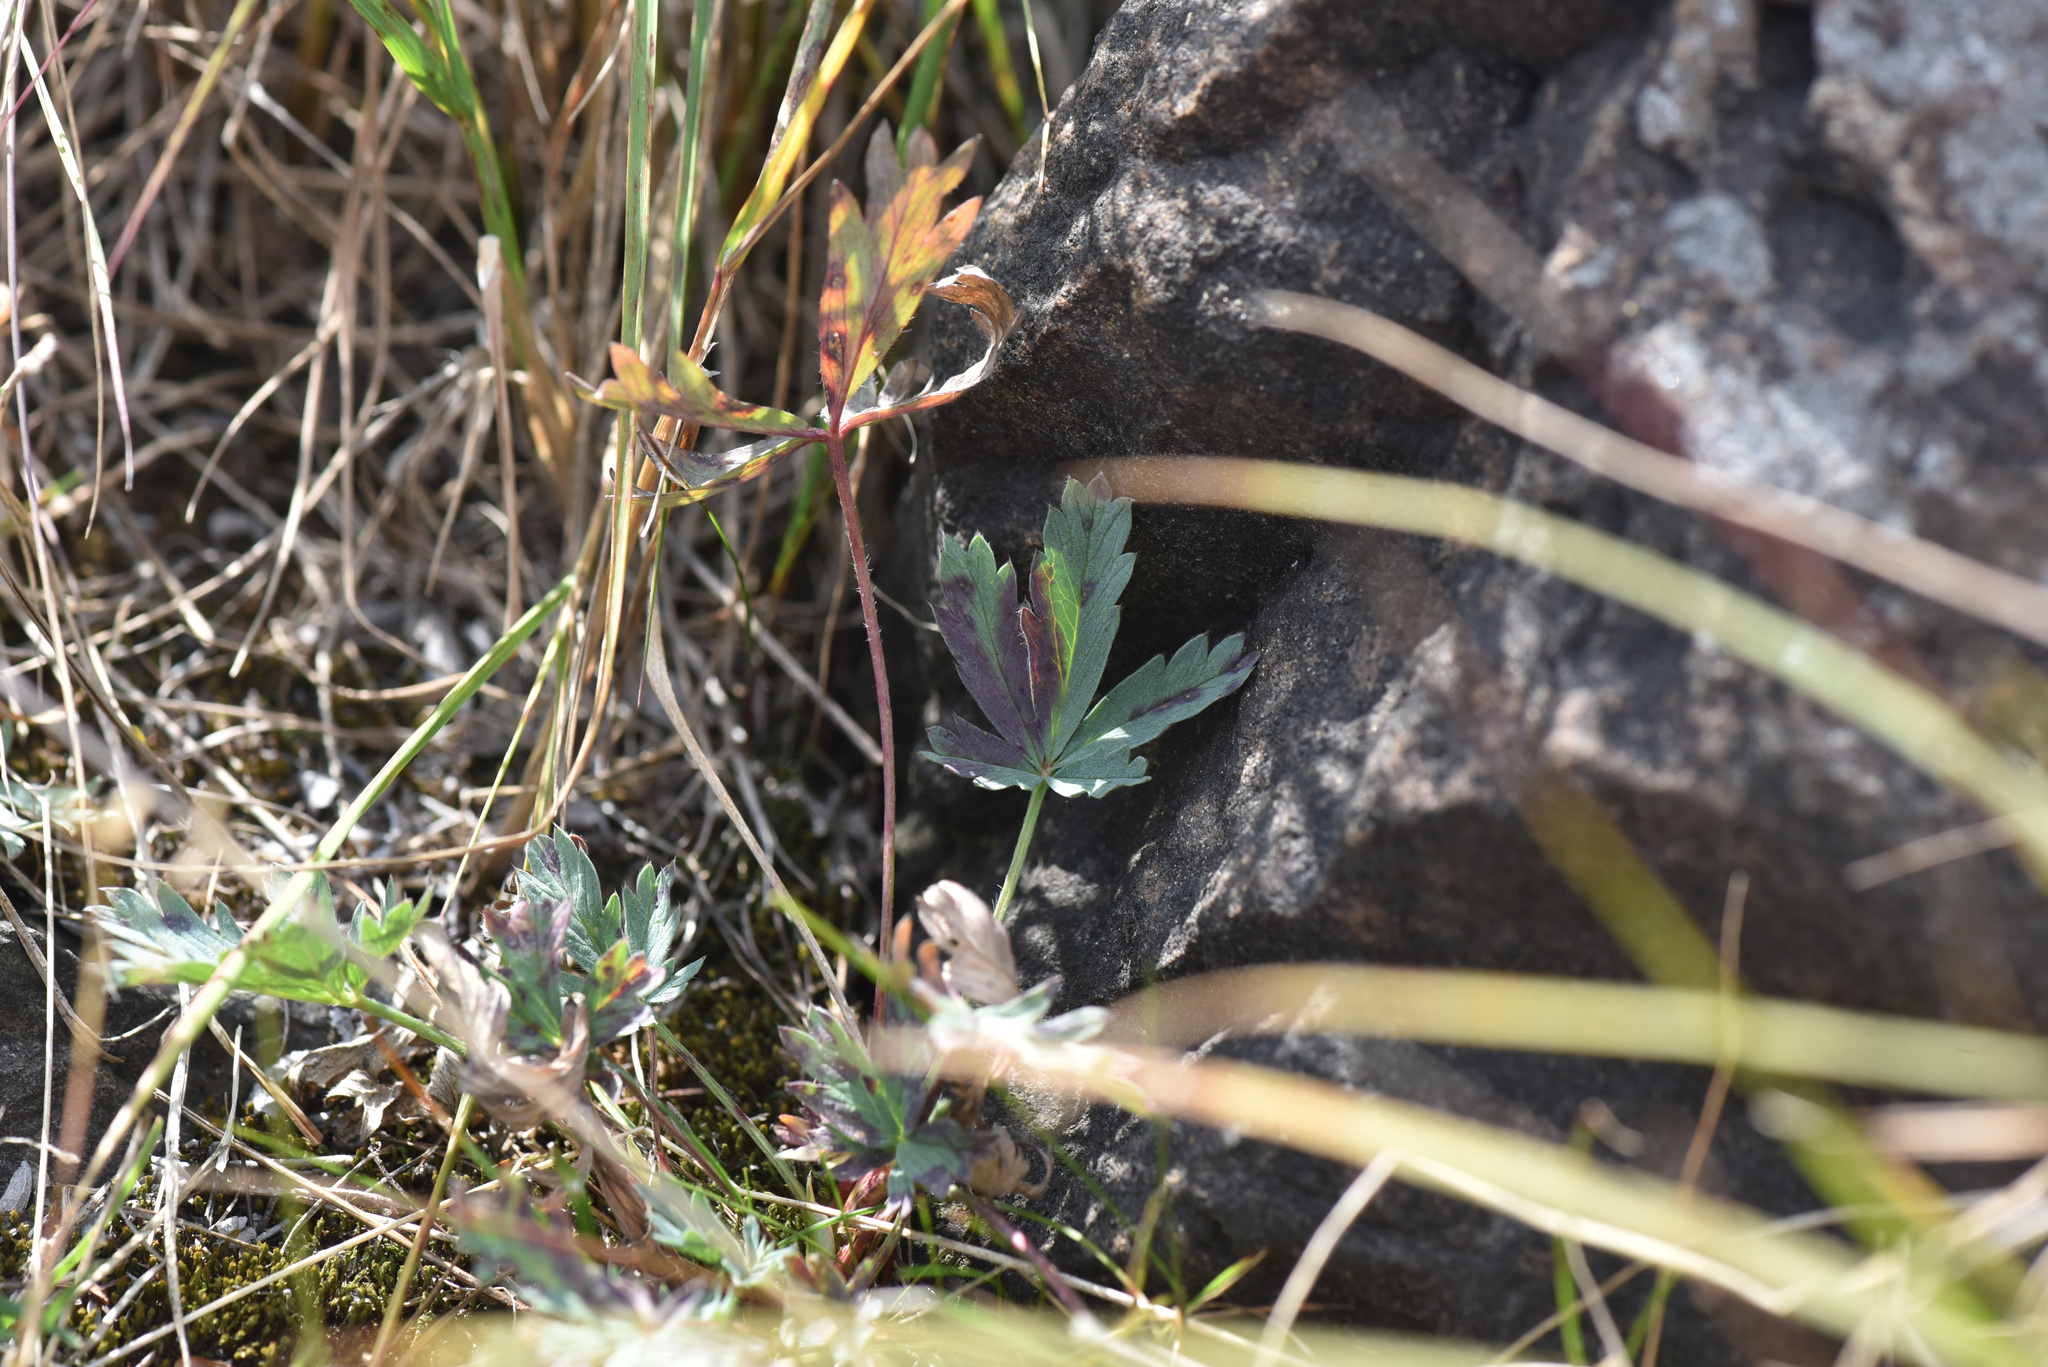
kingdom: Plantae
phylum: Tracheophyta
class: Magnoliopsida
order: Rosales
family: Rosaceae
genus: Potentilla
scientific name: Potentilla glaucophylla
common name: Blue-leaved cinquefoil
